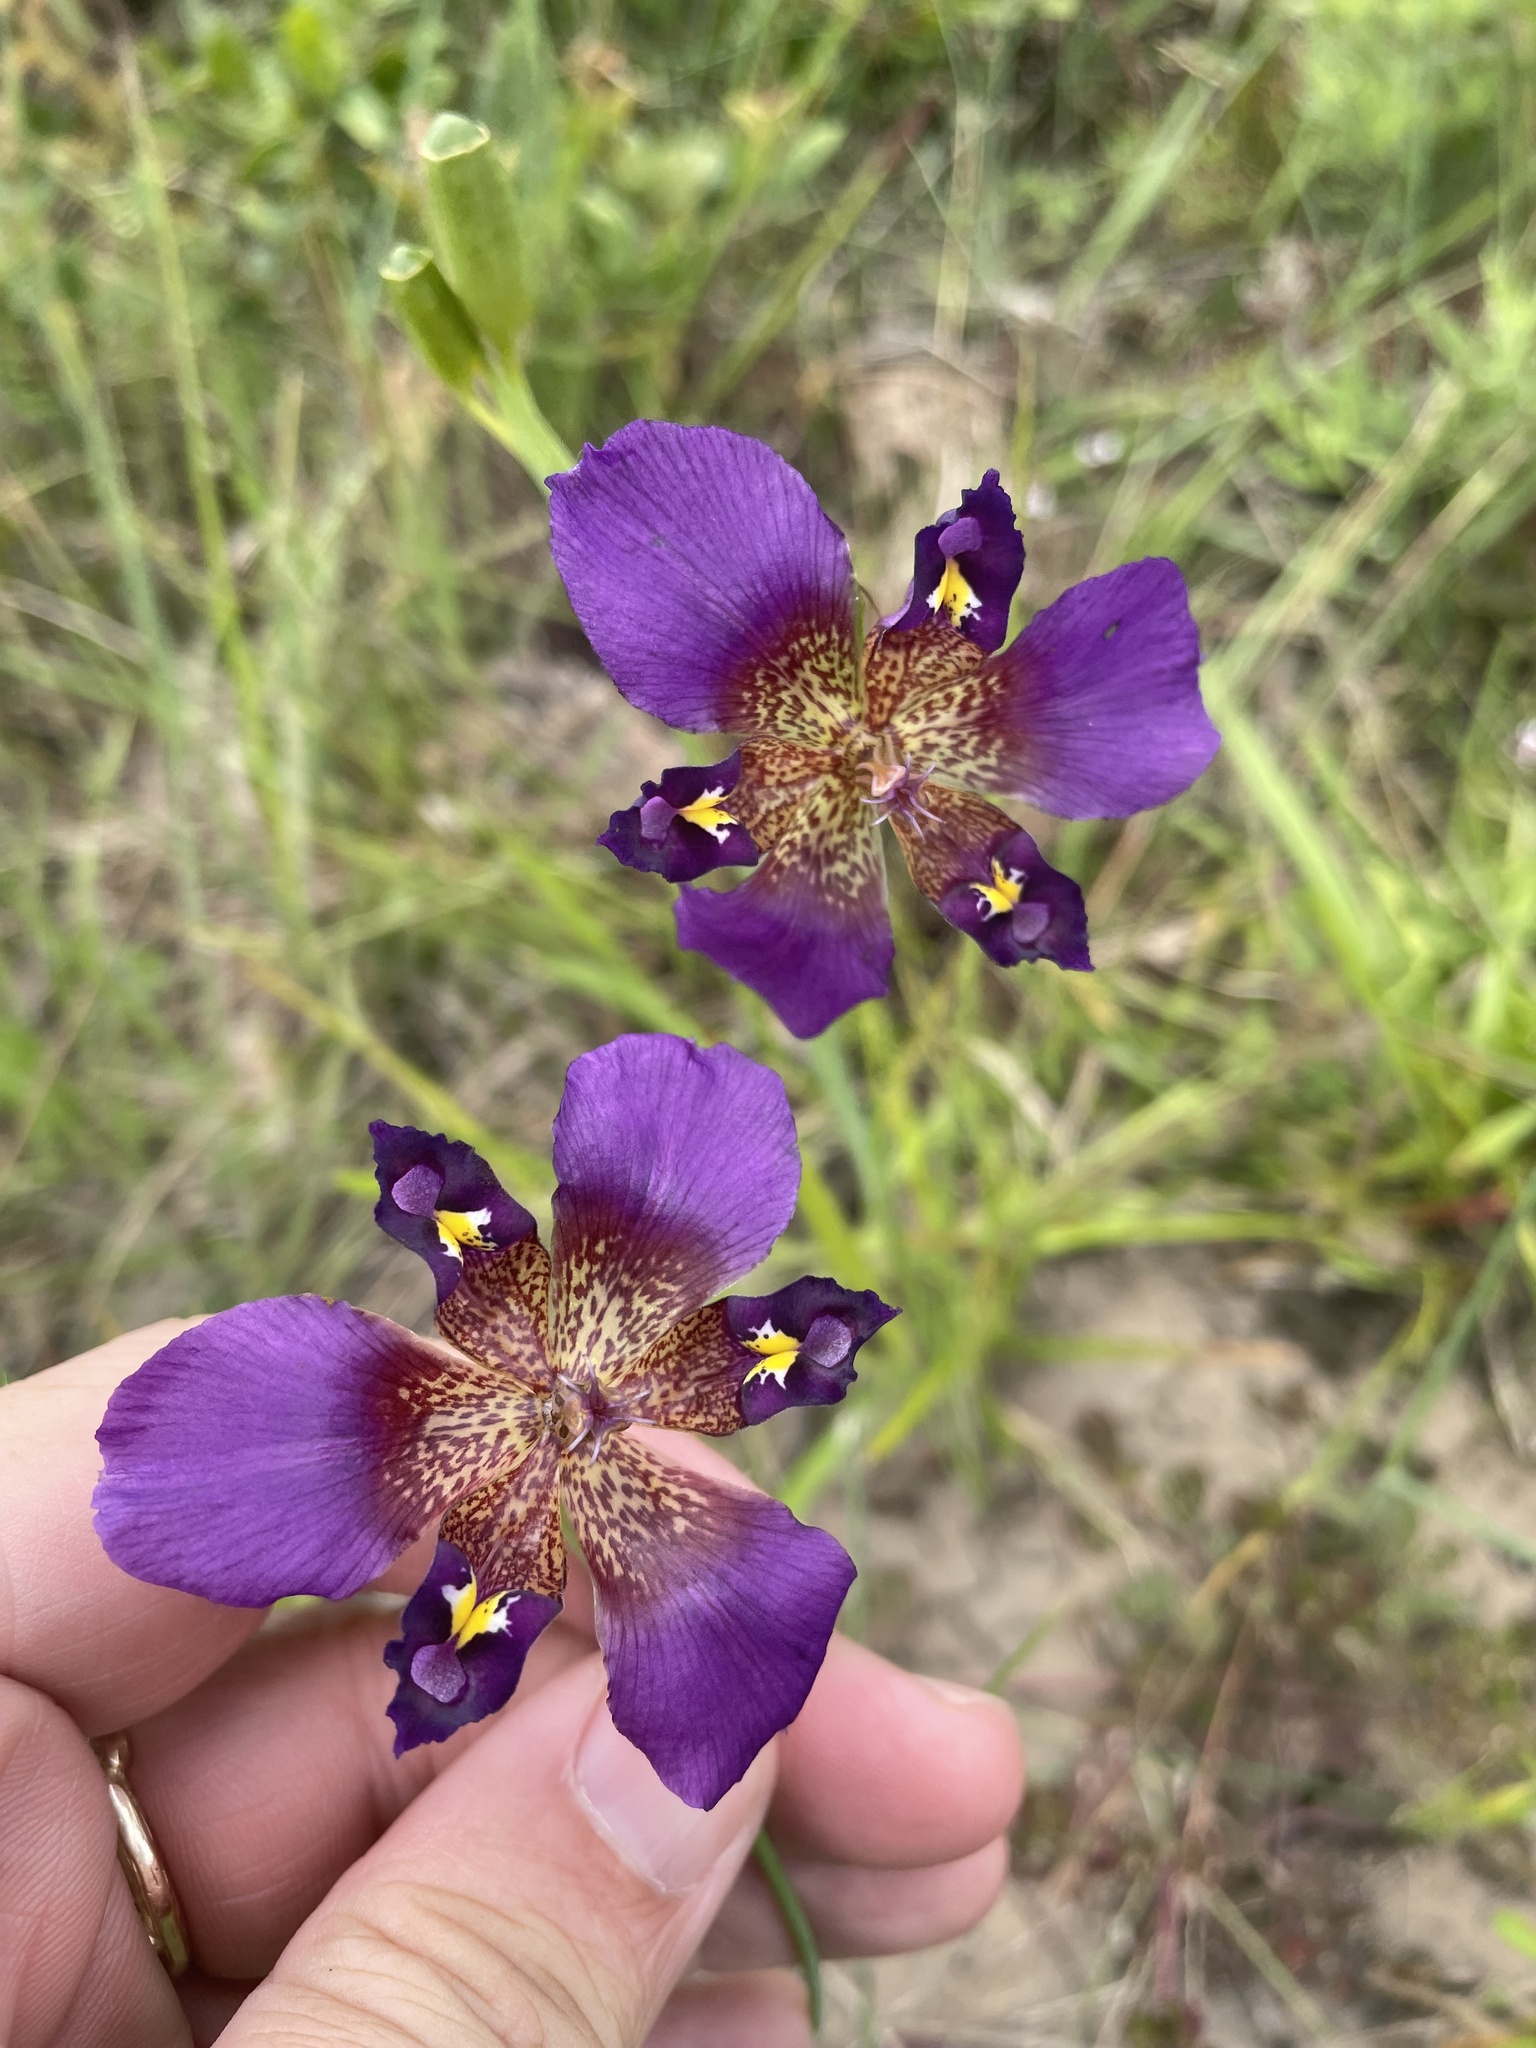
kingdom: Plantae
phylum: Tracheophyta
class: Liliopsida
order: Asparagales
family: Iridaceae
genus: Alophia
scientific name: Alophia drummondii
